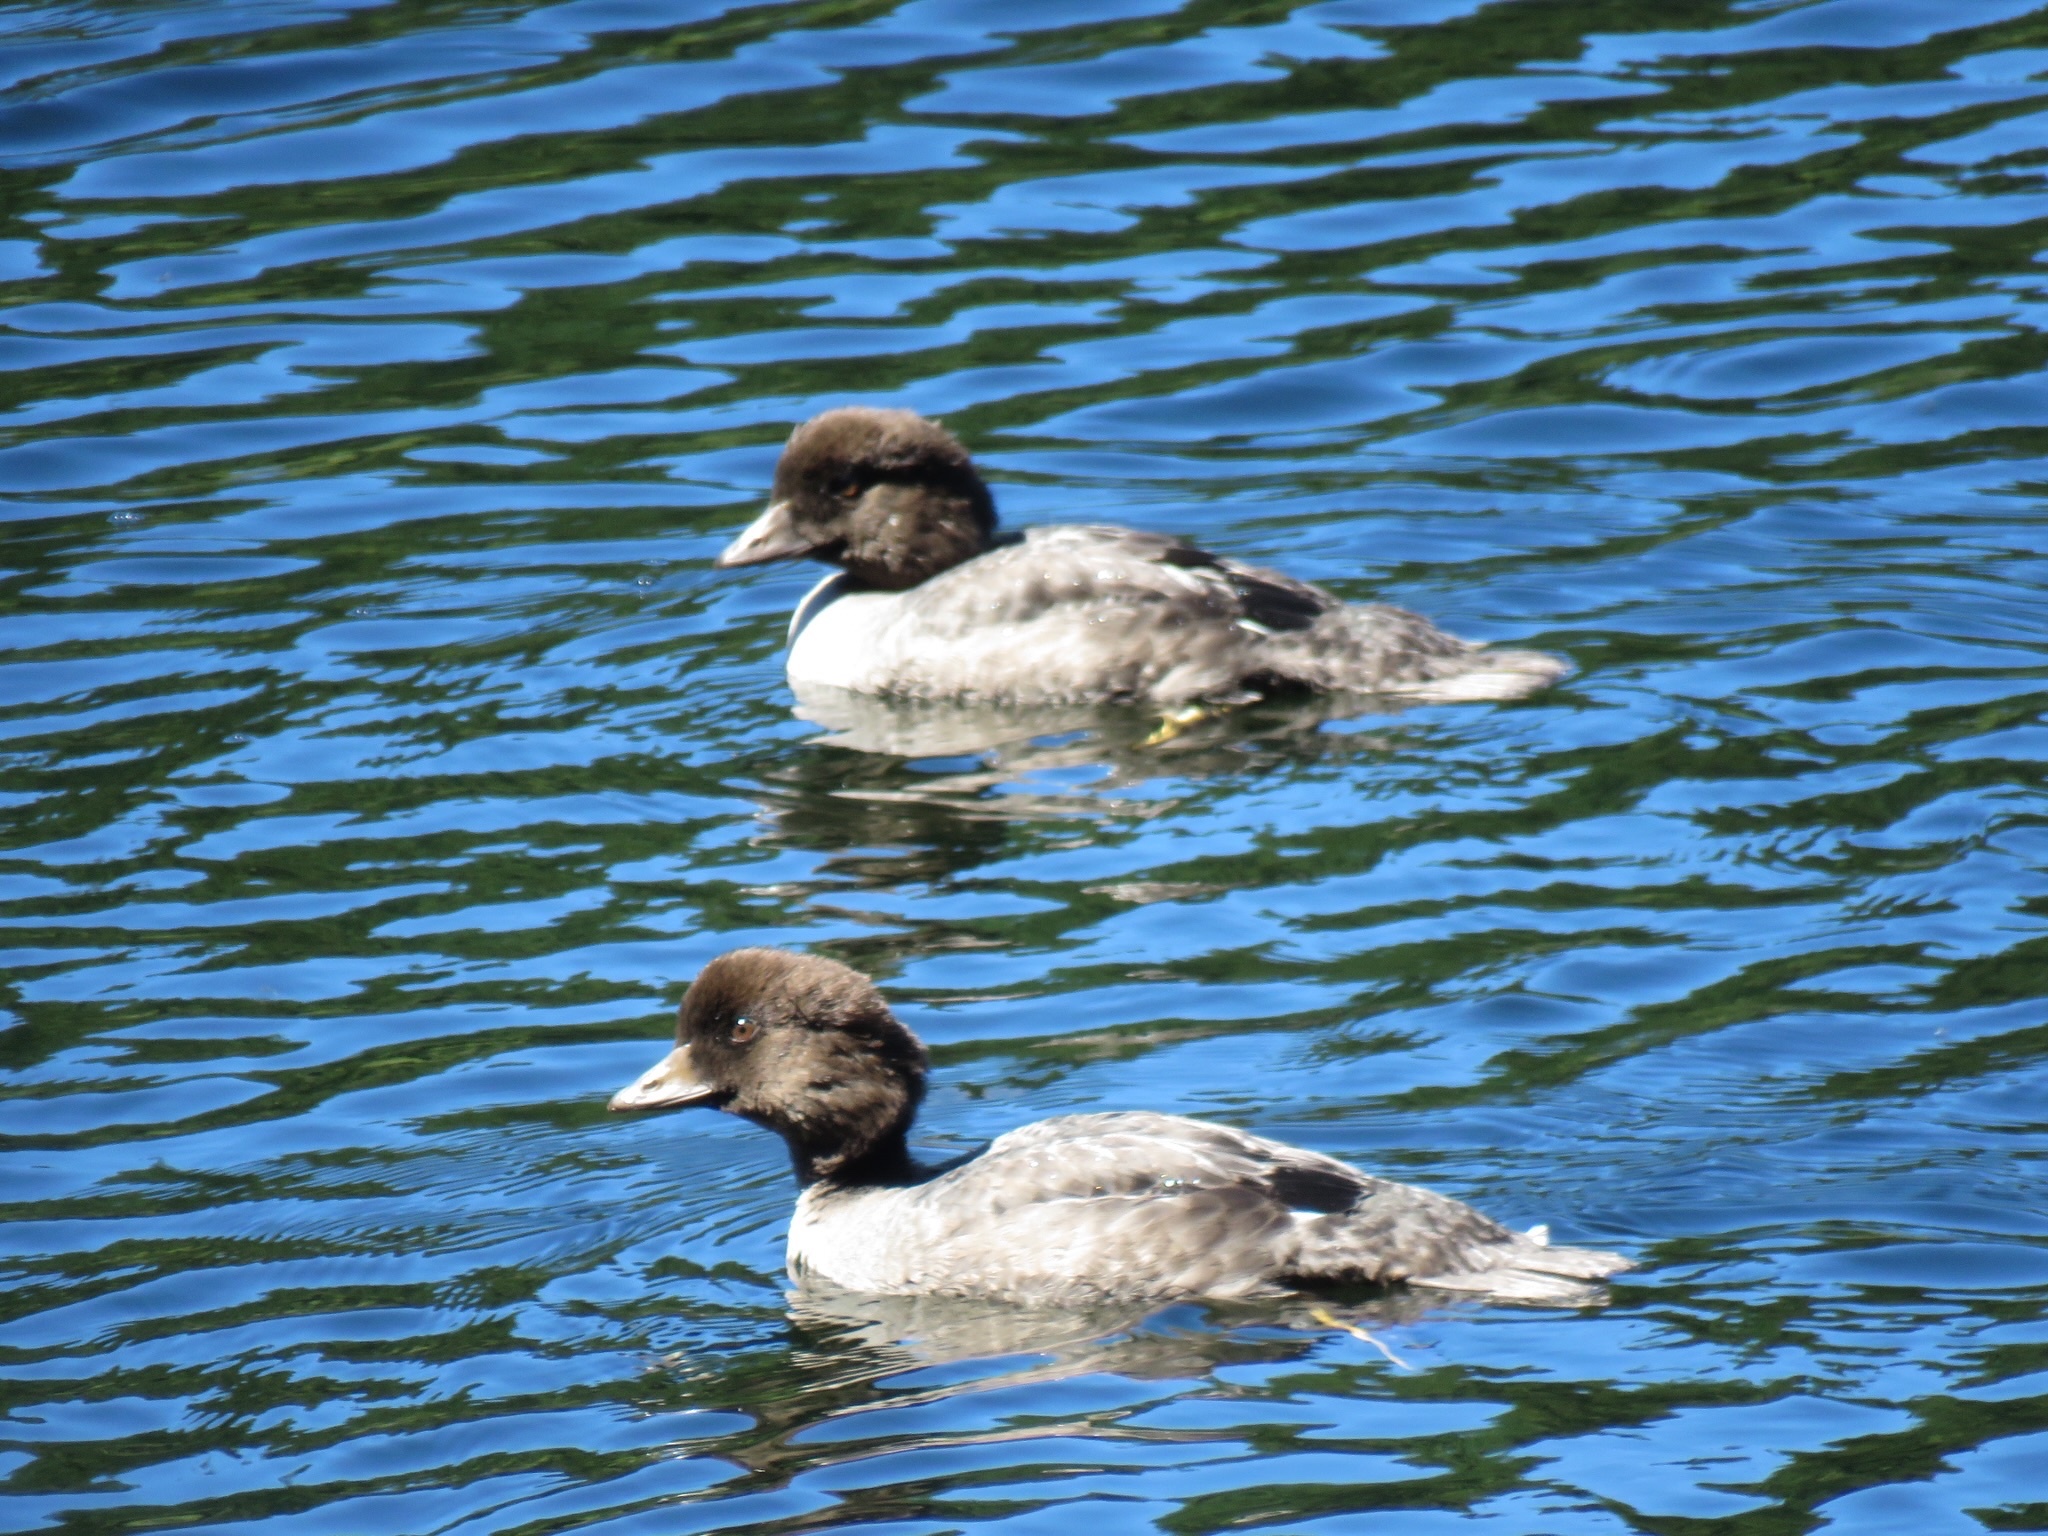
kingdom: Animalia
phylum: Chordata
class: Aves
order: Anseriformes
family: Anatidae
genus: Bucephala
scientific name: Bucephala islandica
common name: Barrow's goldeneye
